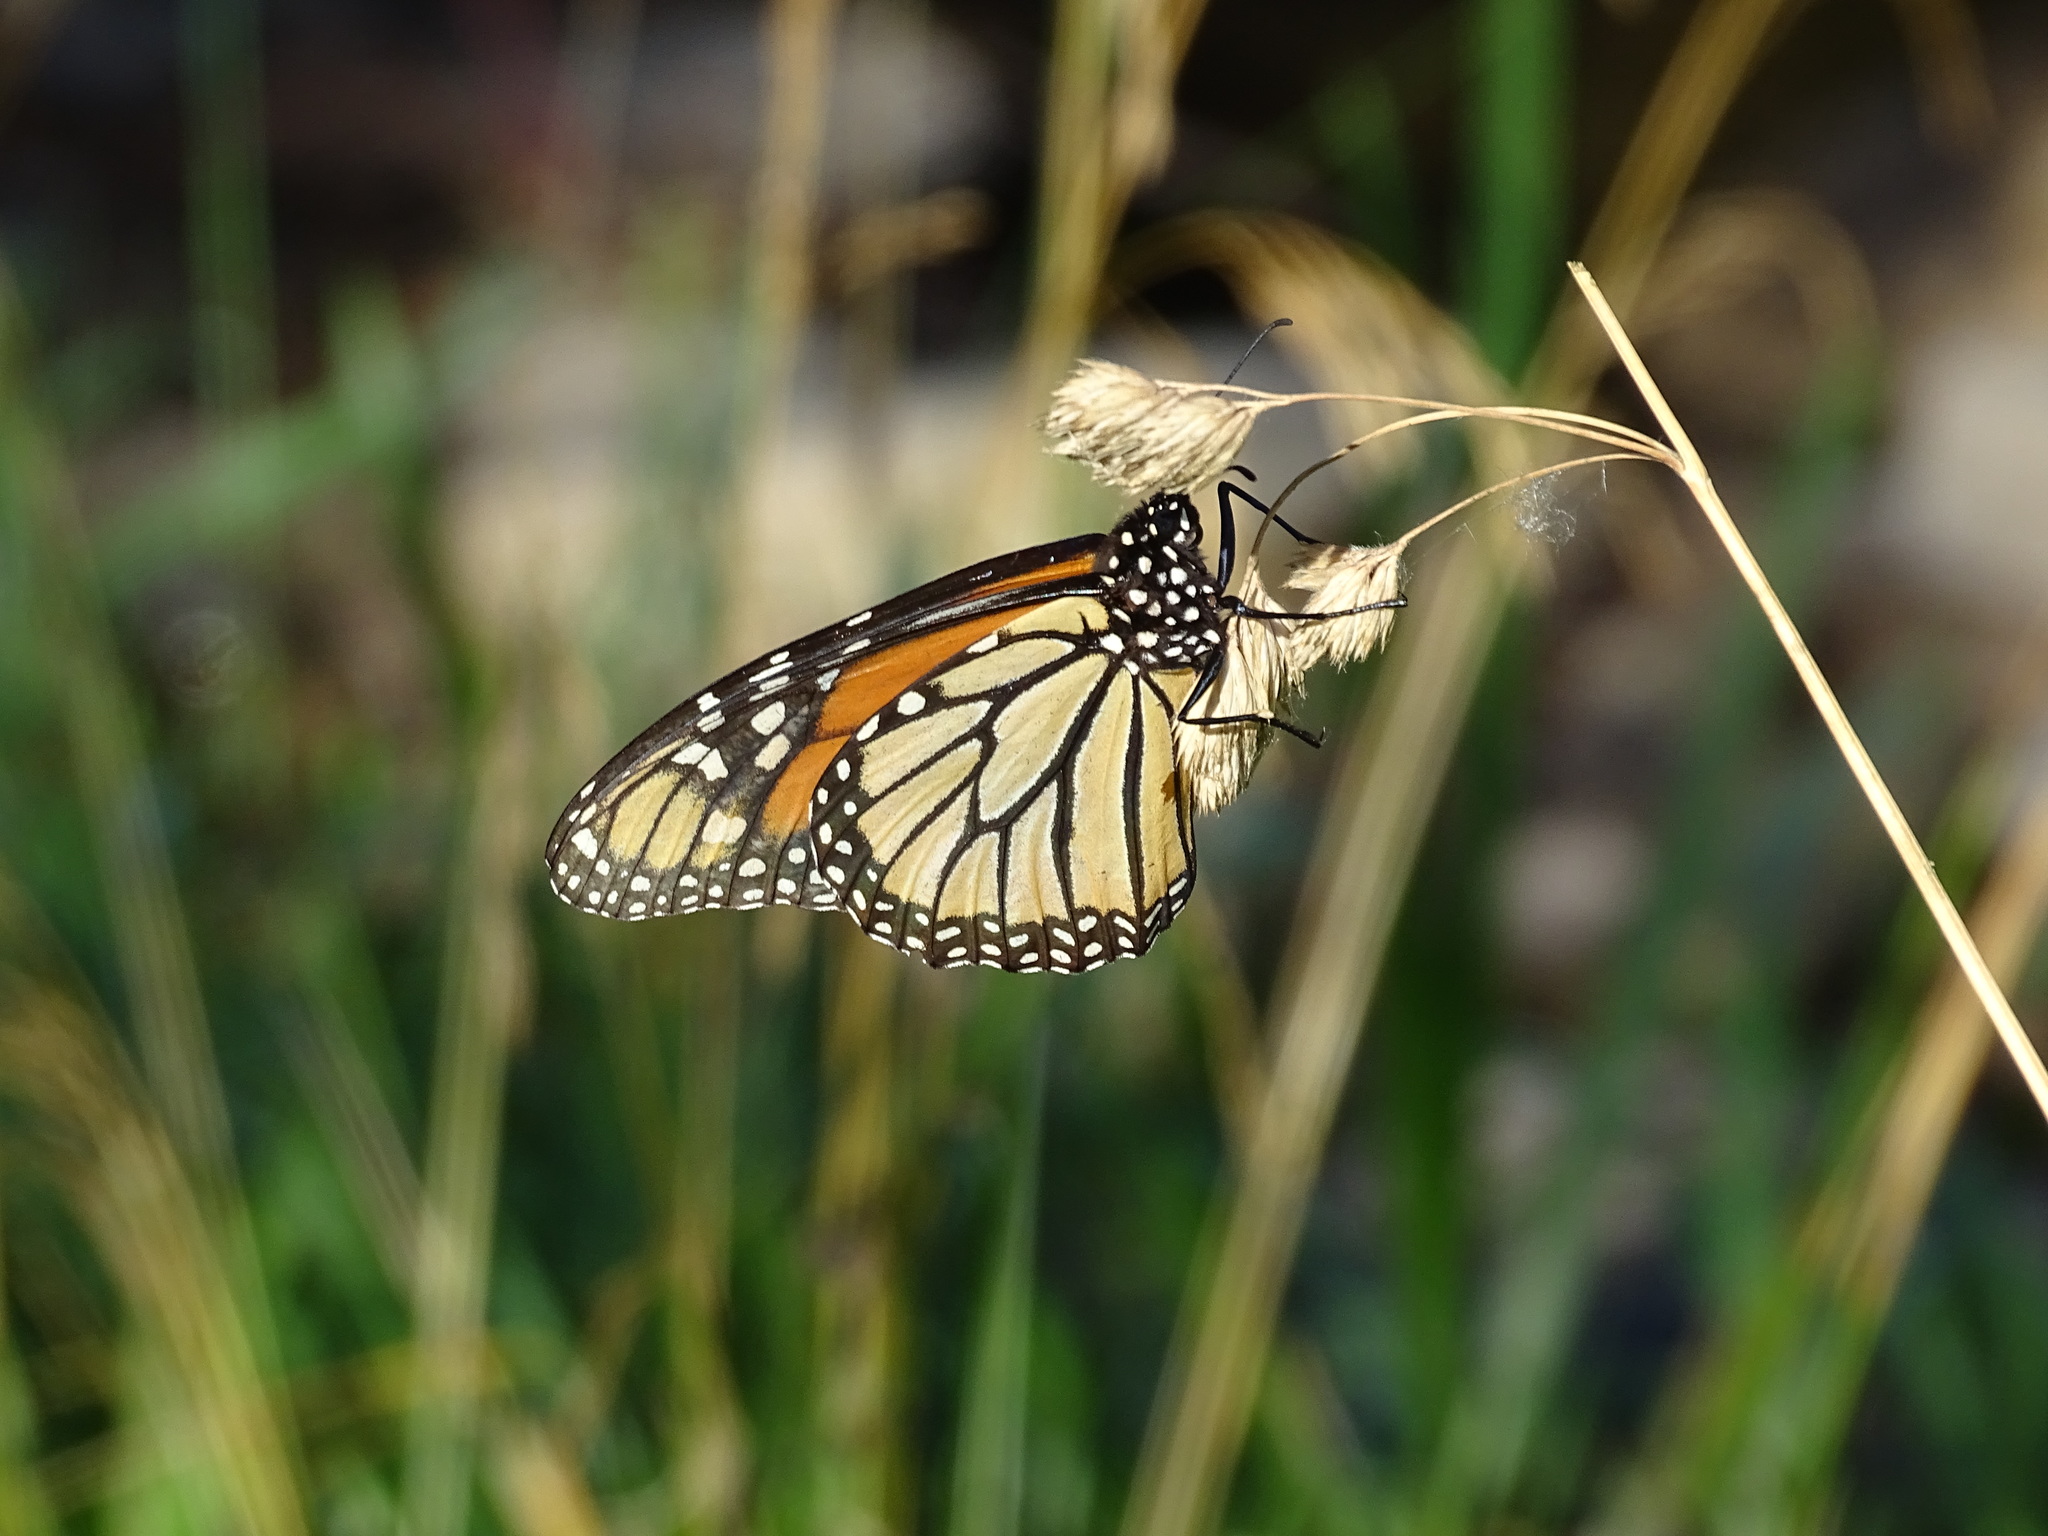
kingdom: Animalia
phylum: Arthropoda
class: Insecta
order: Lepidoptera
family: Nymphalidae
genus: Danaus
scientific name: Danaus plexippus
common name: Monarch
